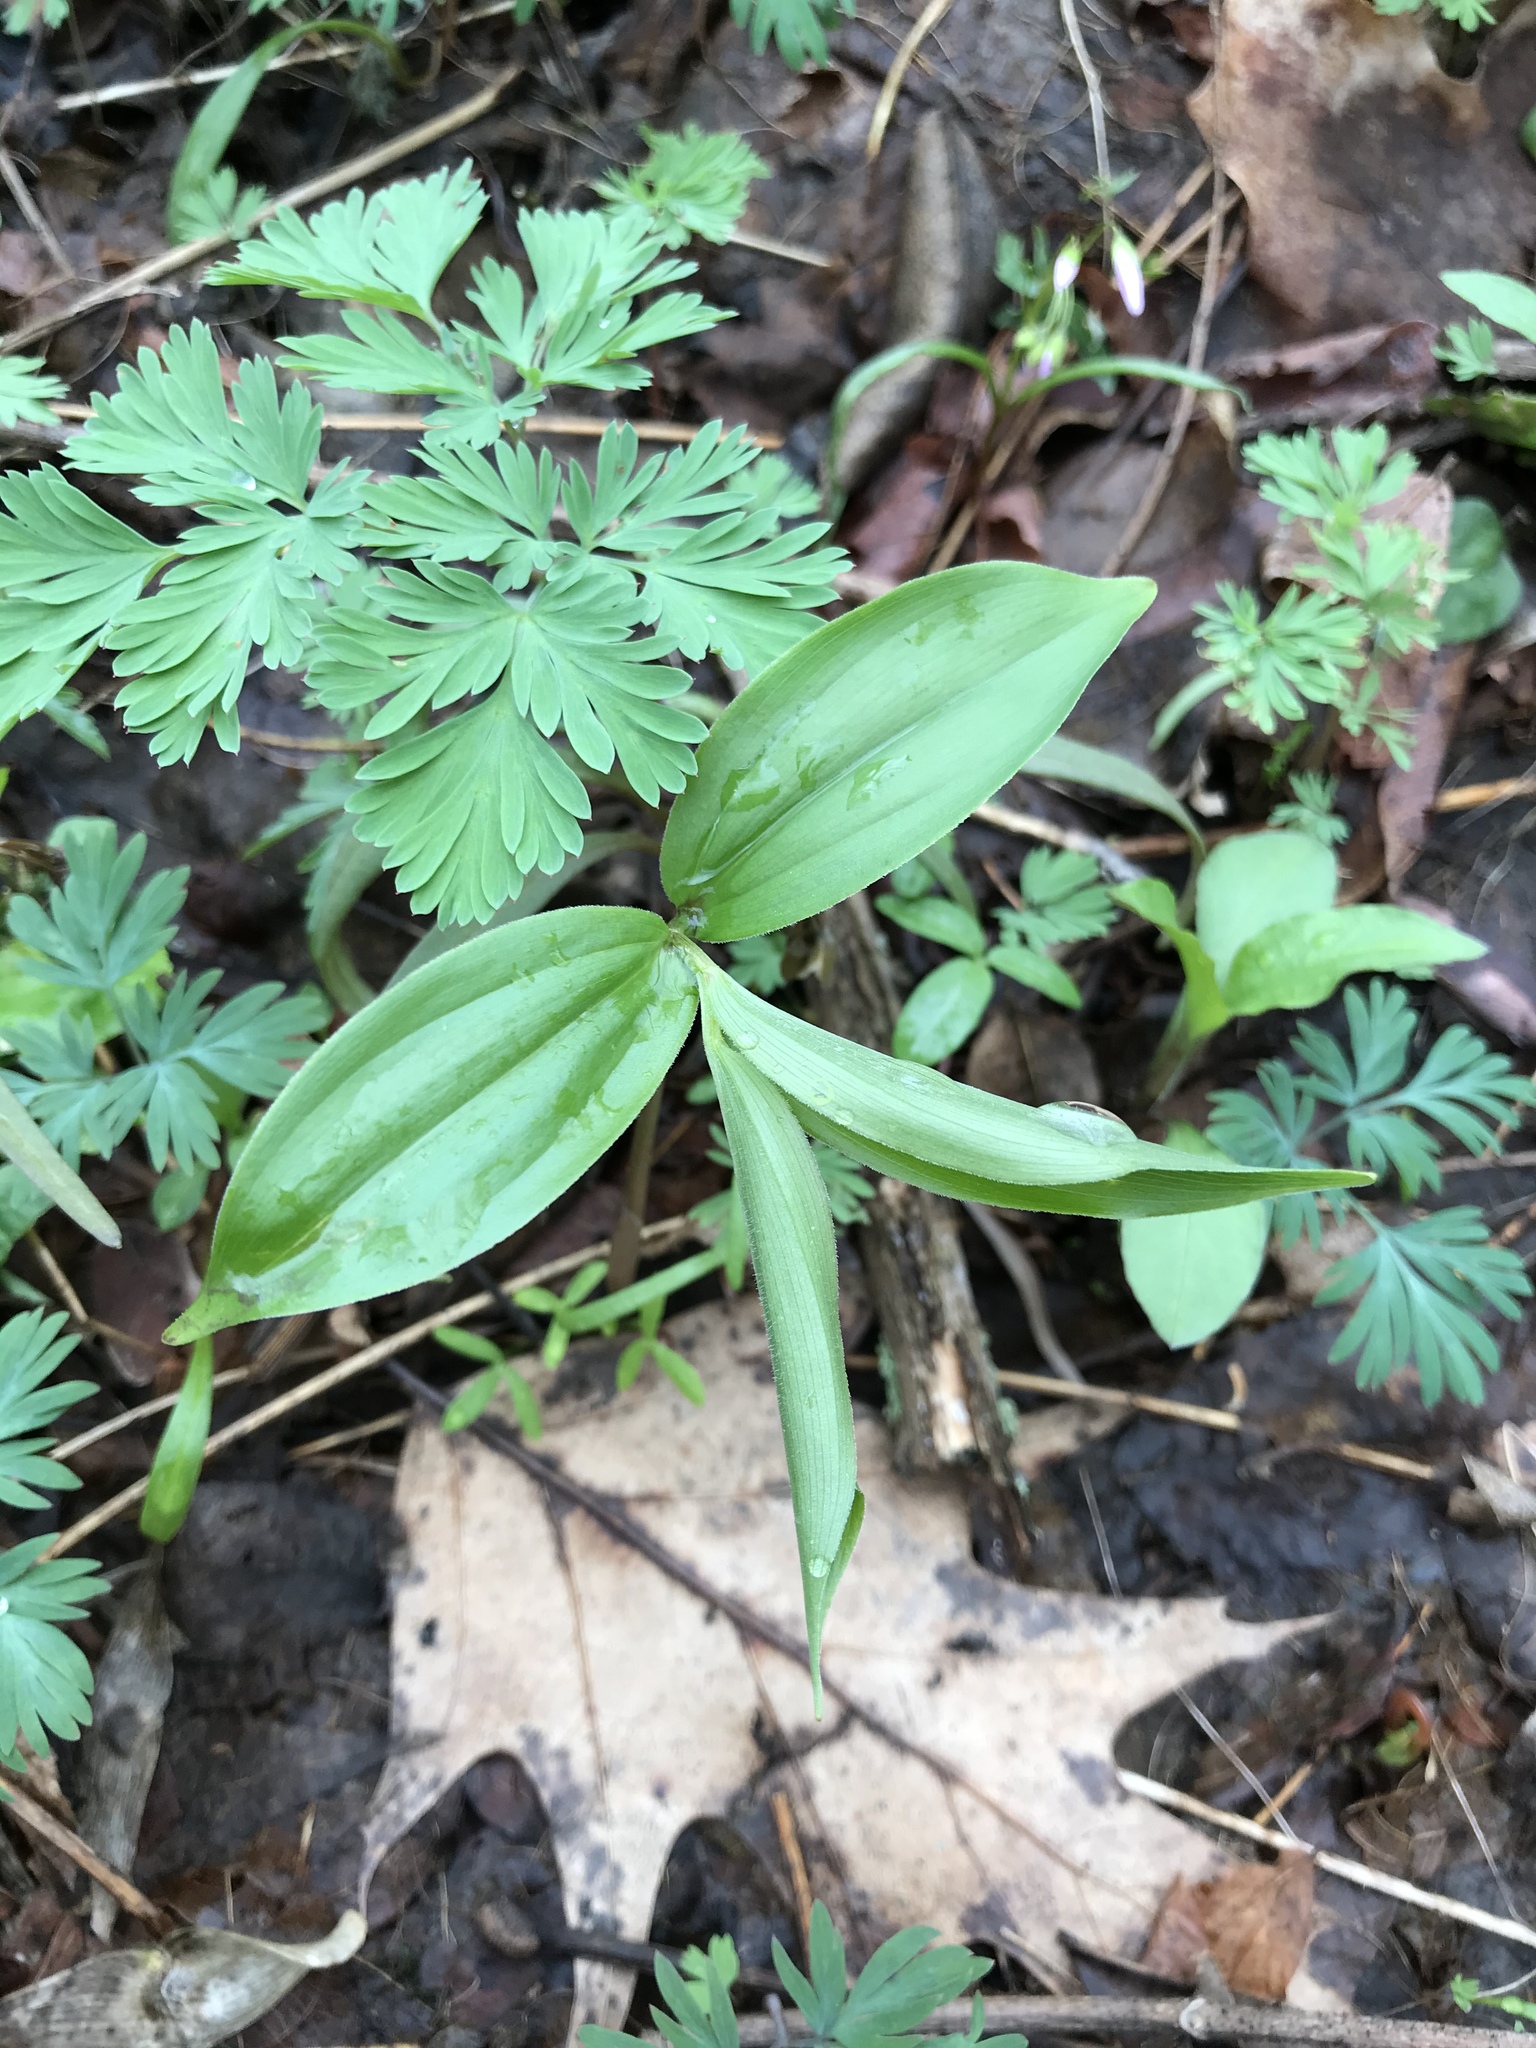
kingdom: Plantae
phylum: Tracheophyta
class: Liliopsida
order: Asparagales
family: Asparagaceae
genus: Maianthemum
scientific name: Maianthemum racemosum
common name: False spikenard
